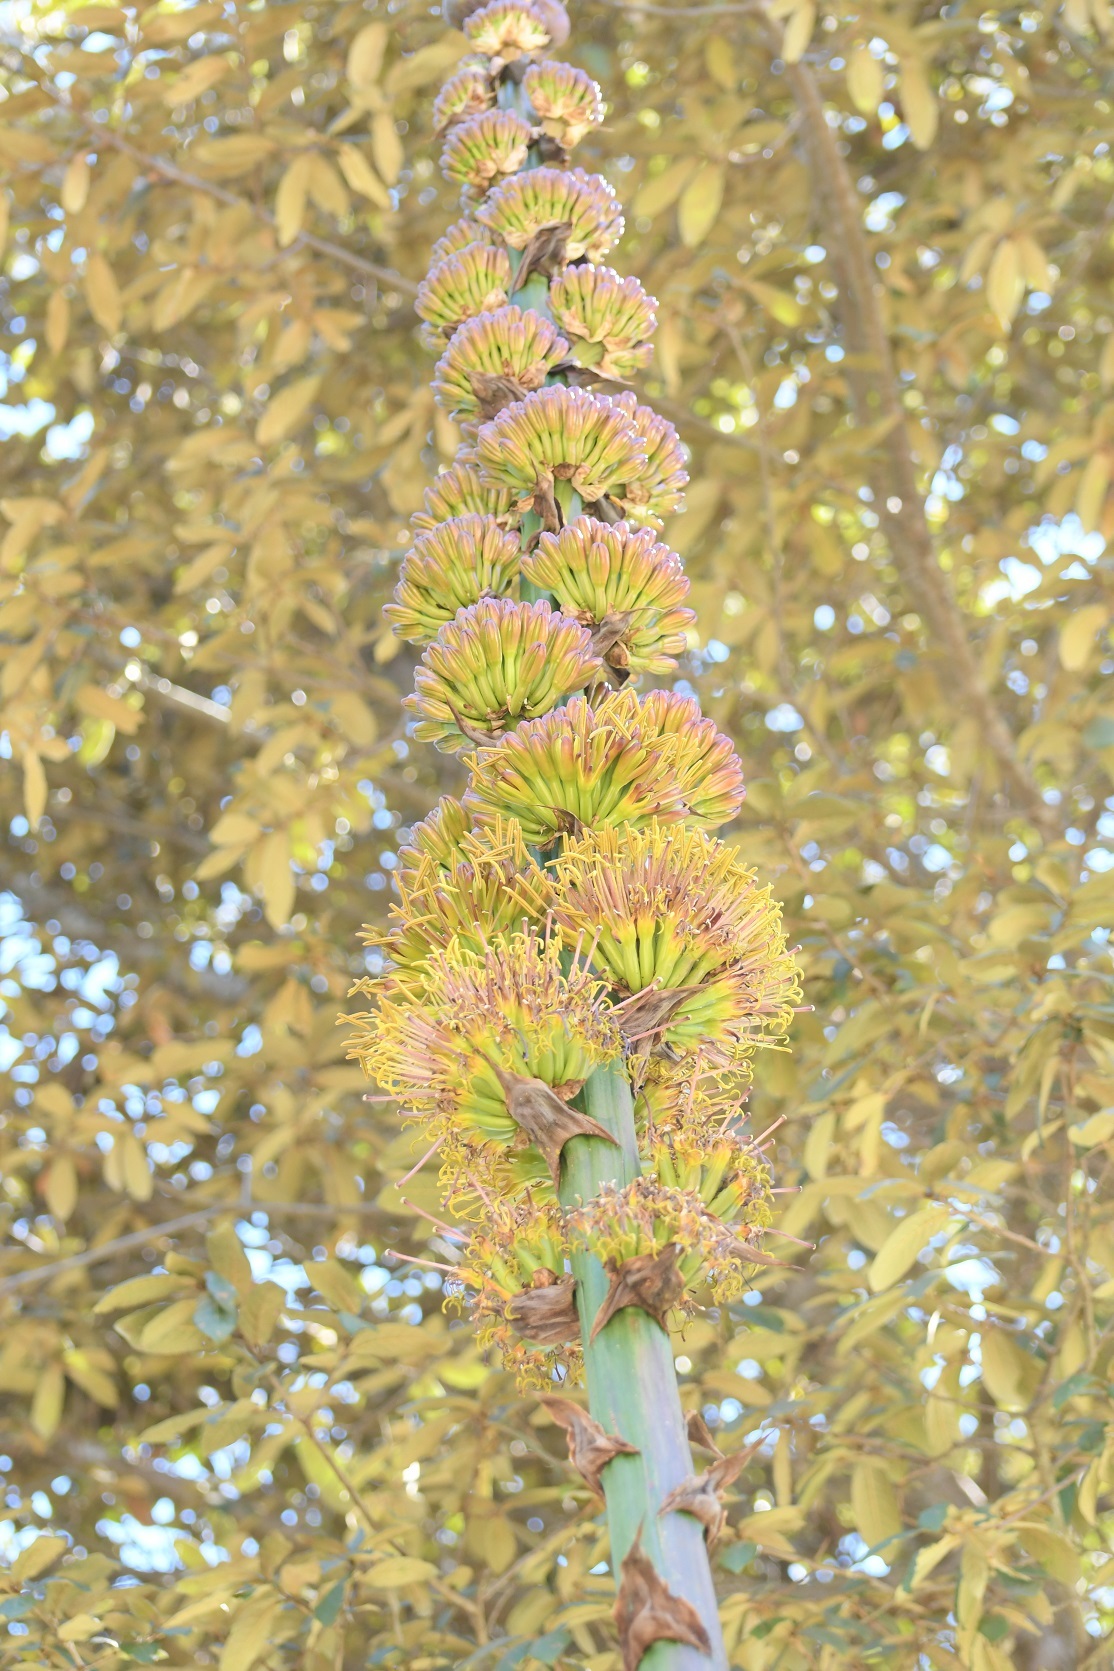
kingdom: Plantae
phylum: Tracheophyta
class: Liliopsida
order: Asparagales
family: Asparagaceae
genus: Agave
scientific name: Agave congesta
